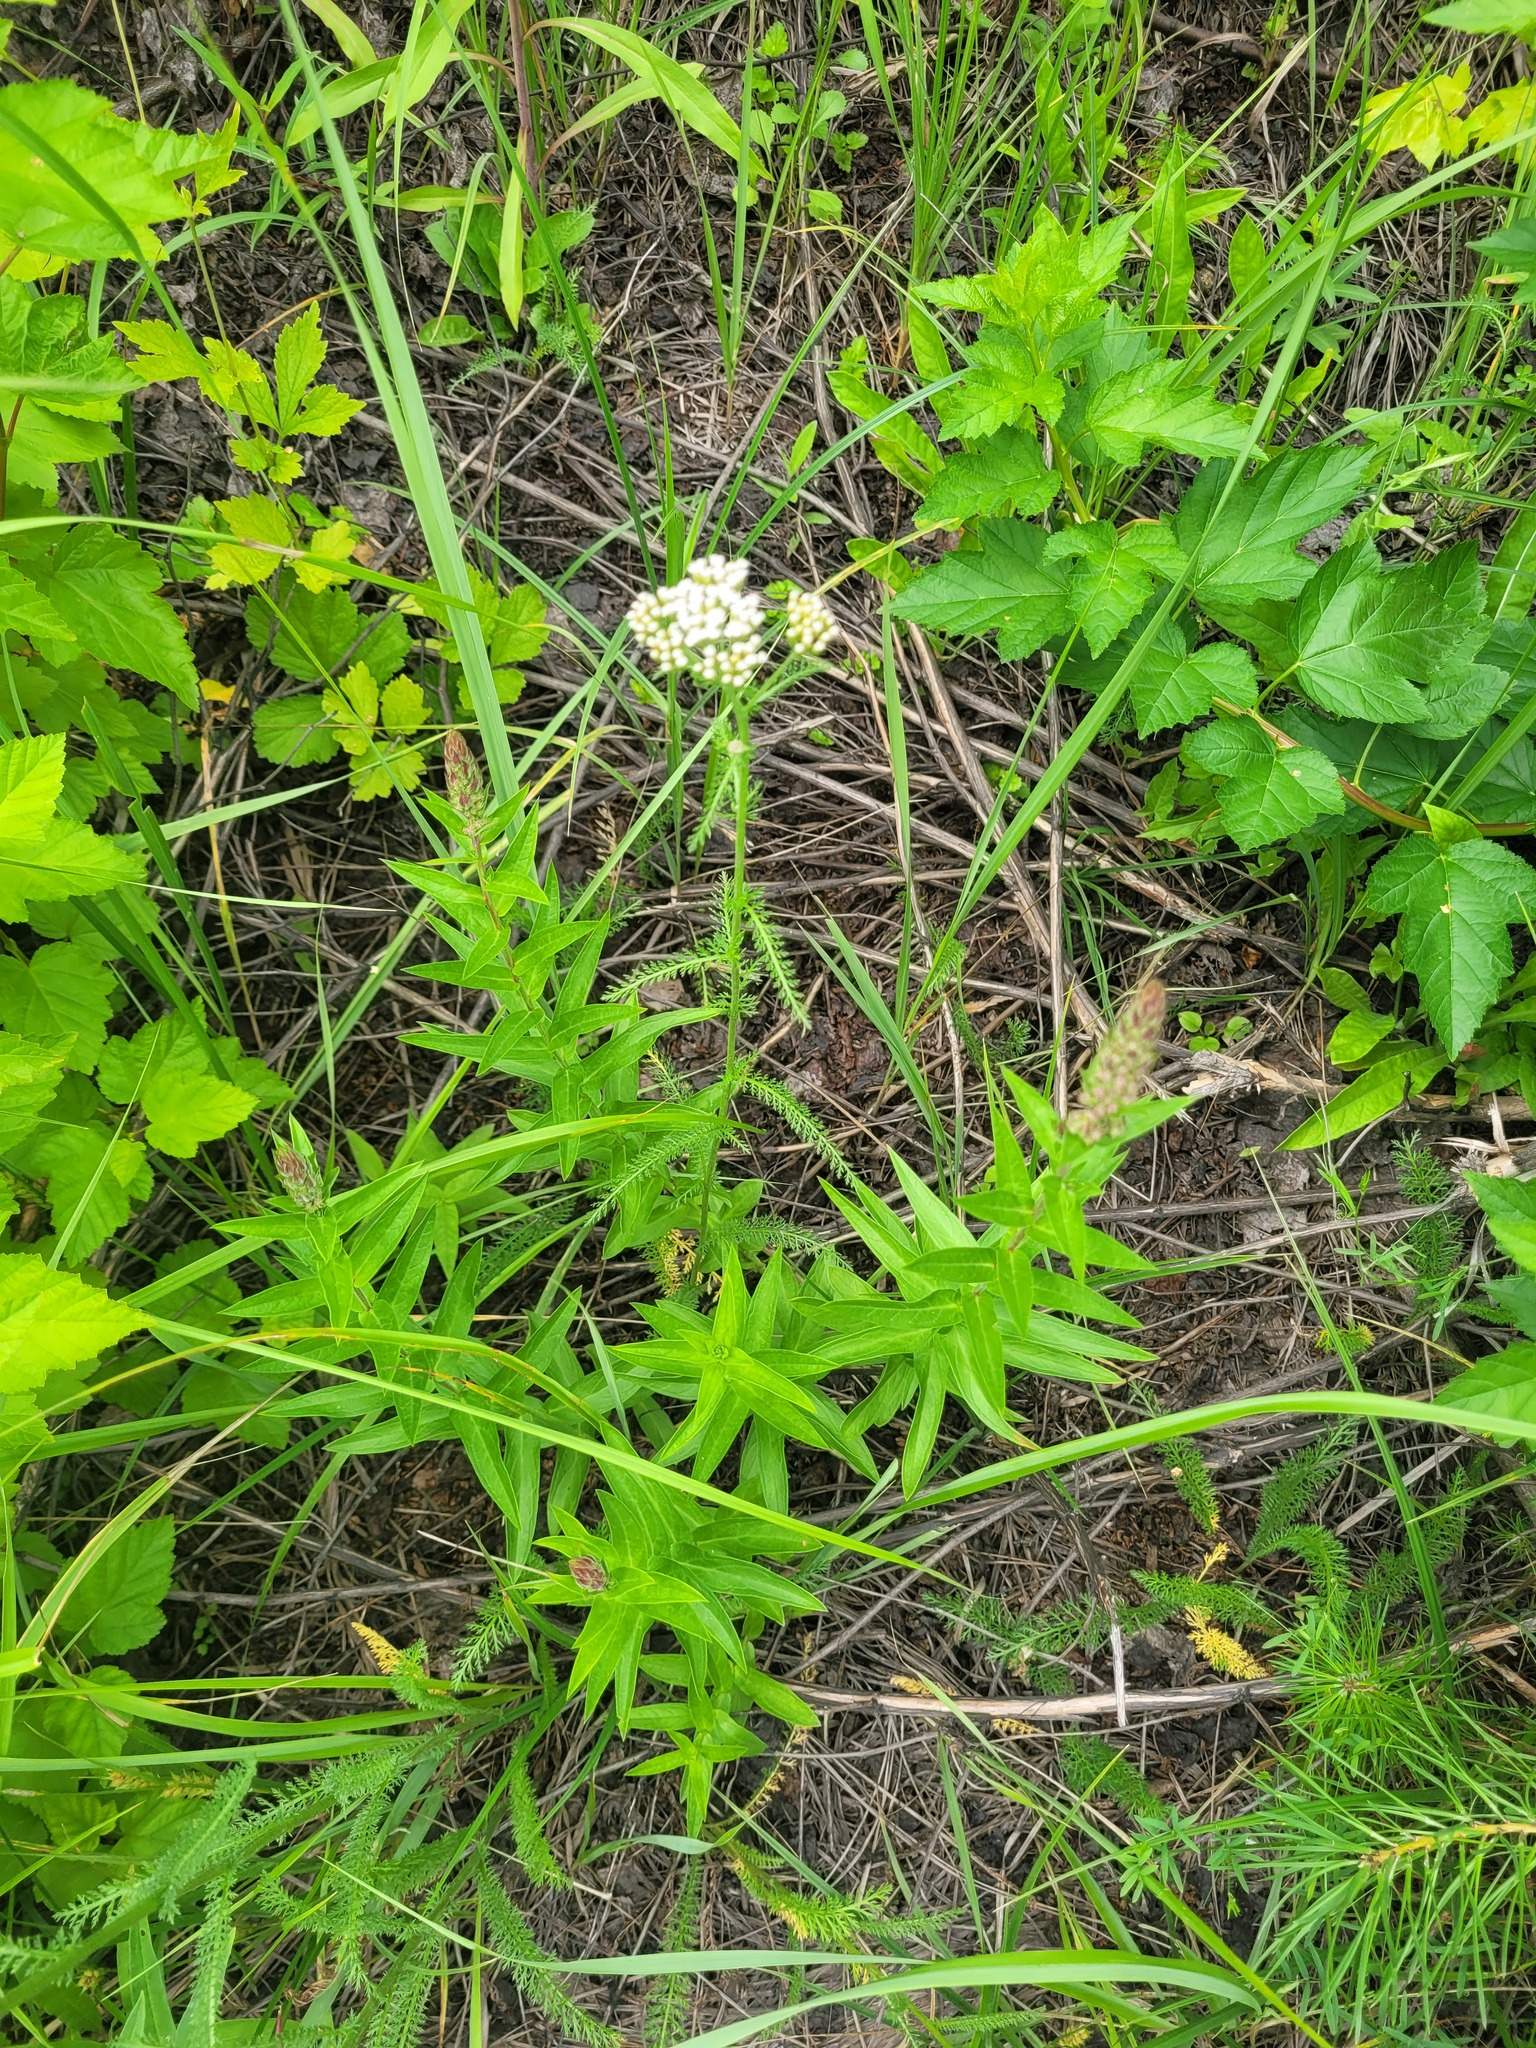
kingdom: Plantae
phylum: Tracheophyta
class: Magnoliopsida
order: Asterales
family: Asteraceae
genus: Achillea
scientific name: Achillea millefolium
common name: Yarrow
